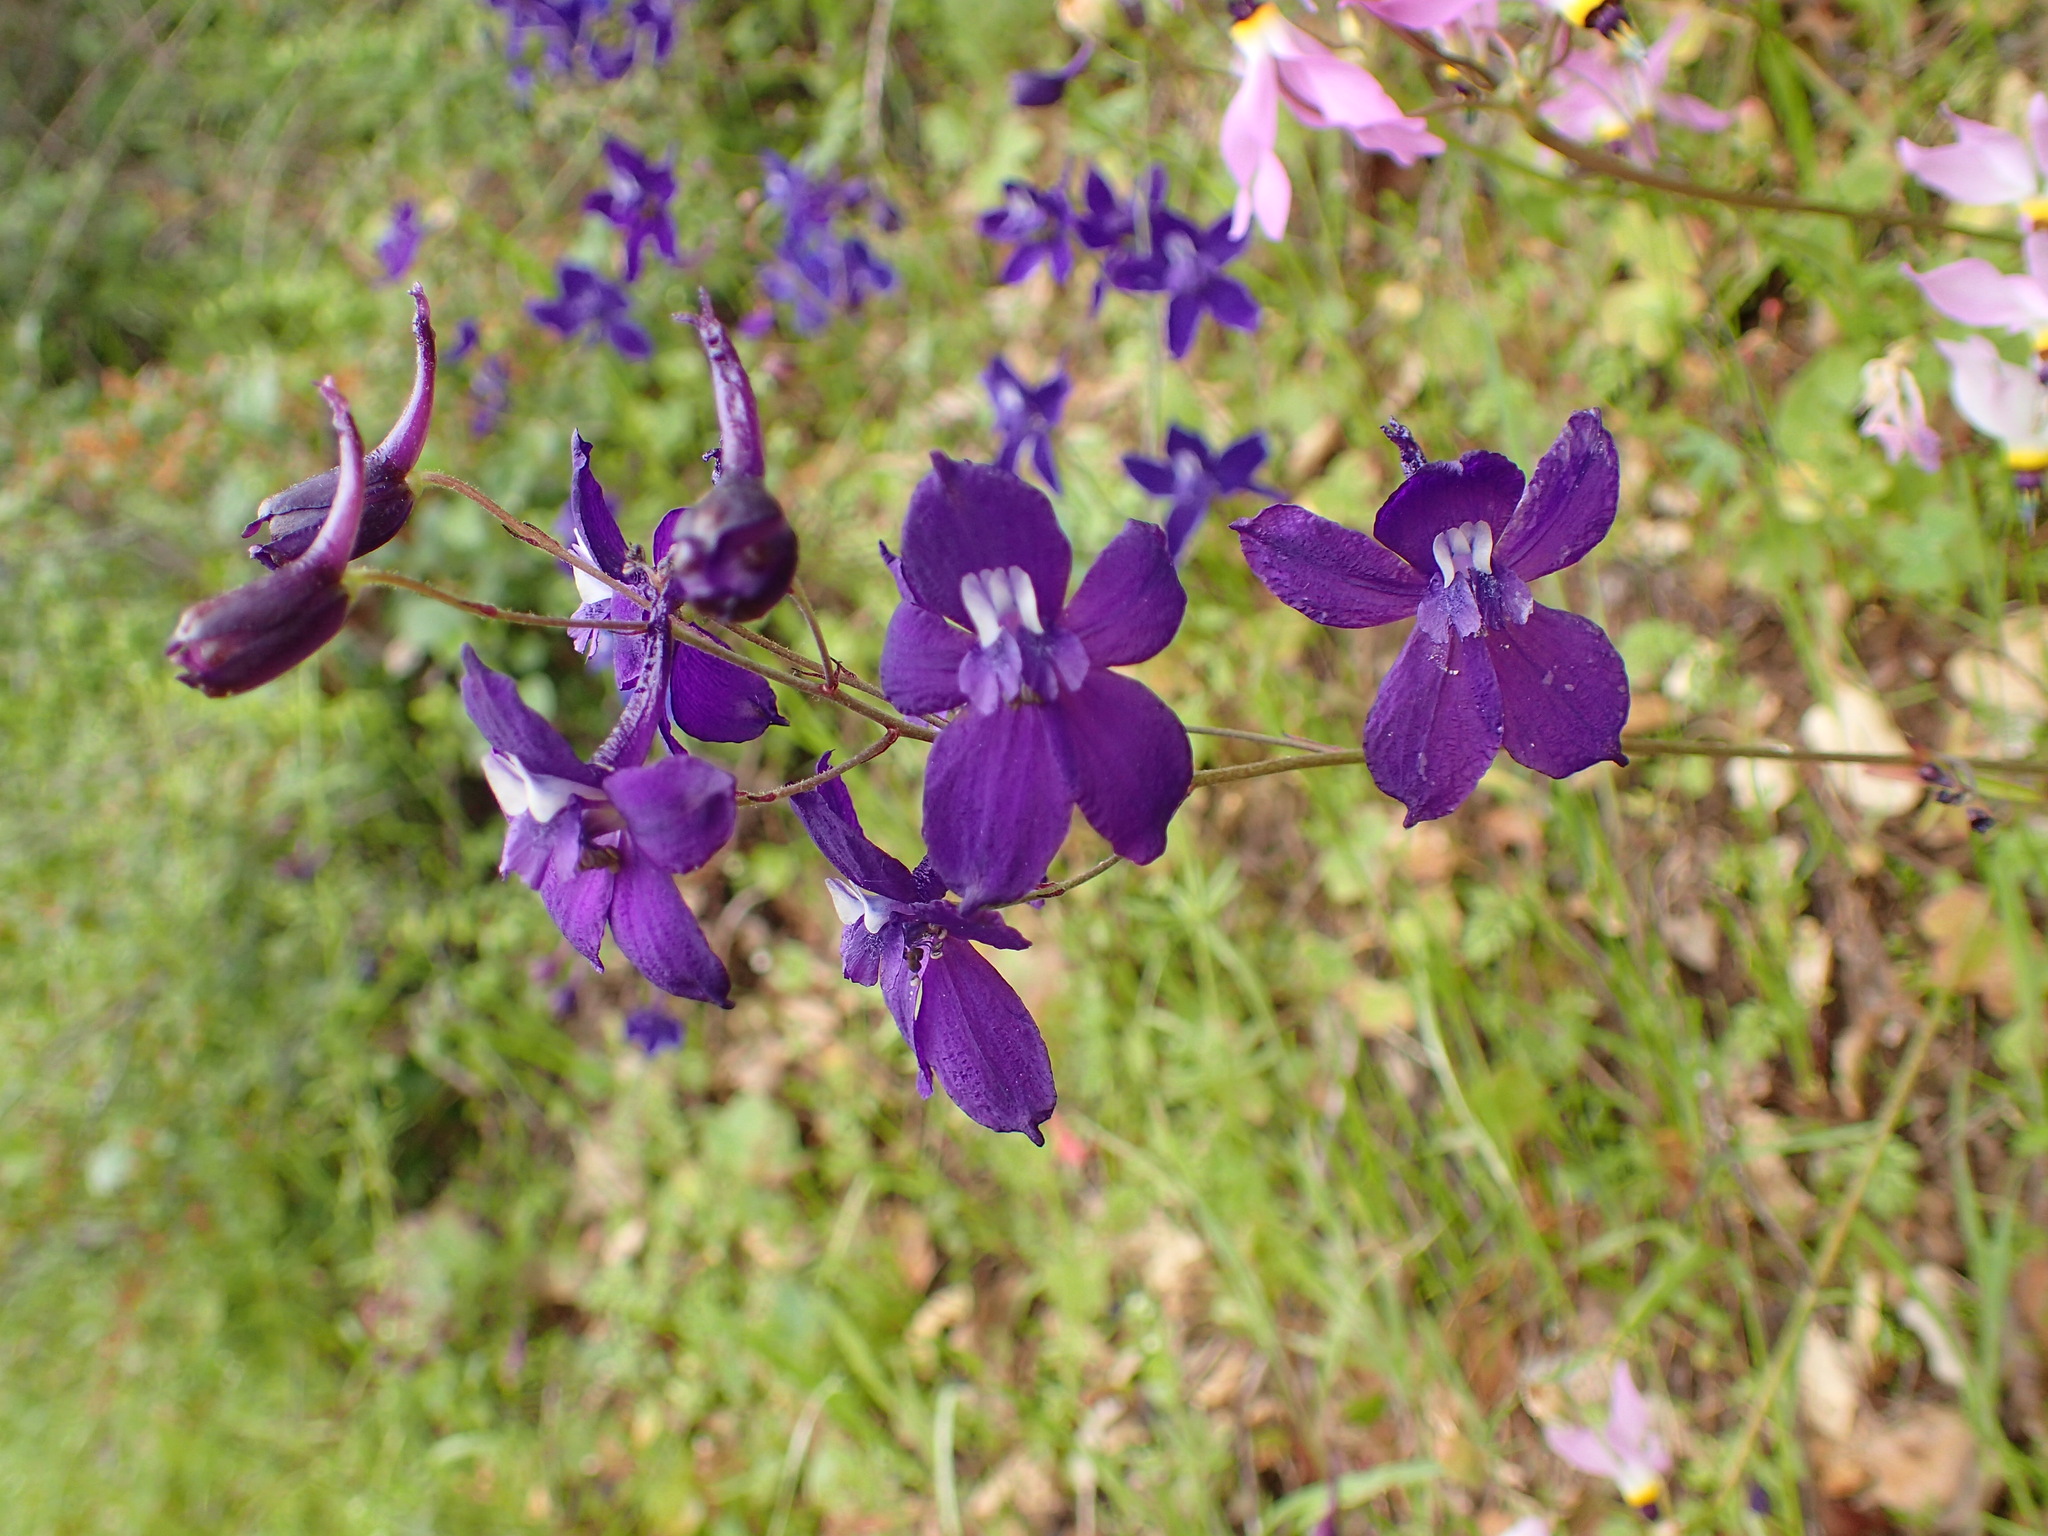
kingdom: Plantae
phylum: Tracheophyta
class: Magnoliopsida
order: Ranunculales
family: Ranunculaceae
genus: Delphinium
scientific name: Delphinium patens
